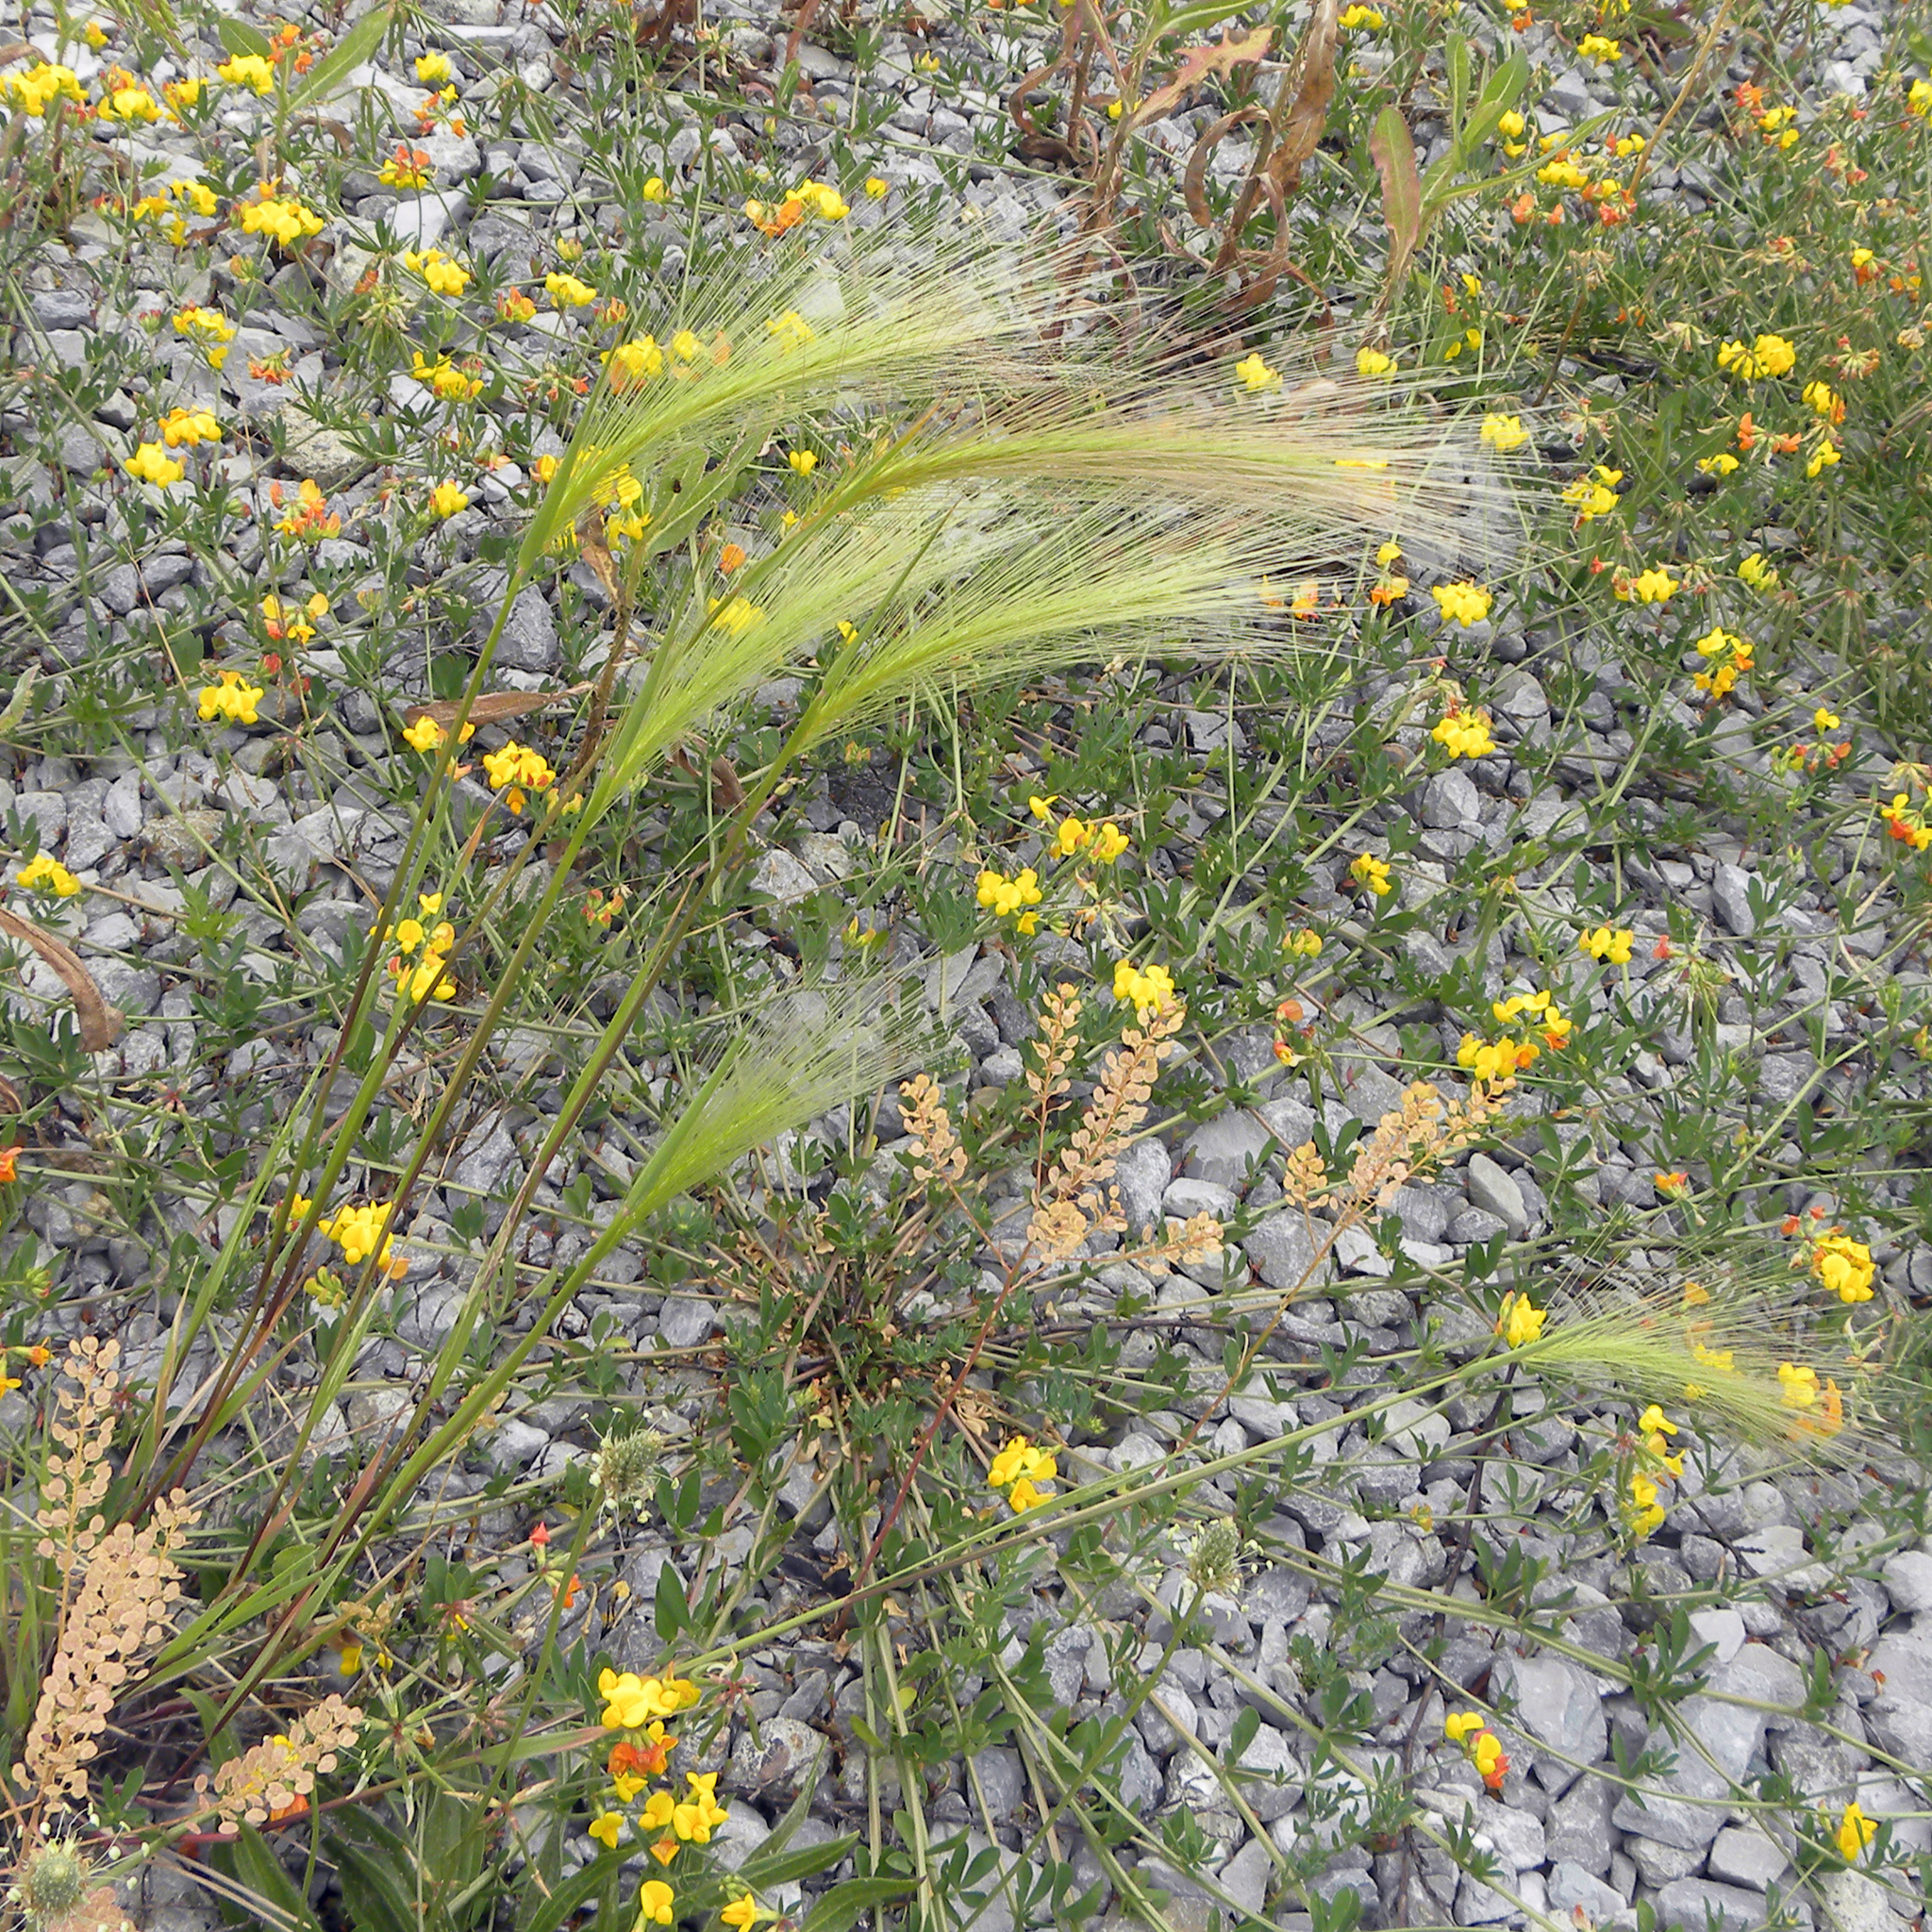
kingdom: Plantae
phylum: Tracheophyta
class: Liliopsida
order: Poales
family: Poaceae
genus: Hordeum
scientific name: Hordeum jubatum
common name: Foxtail barley
